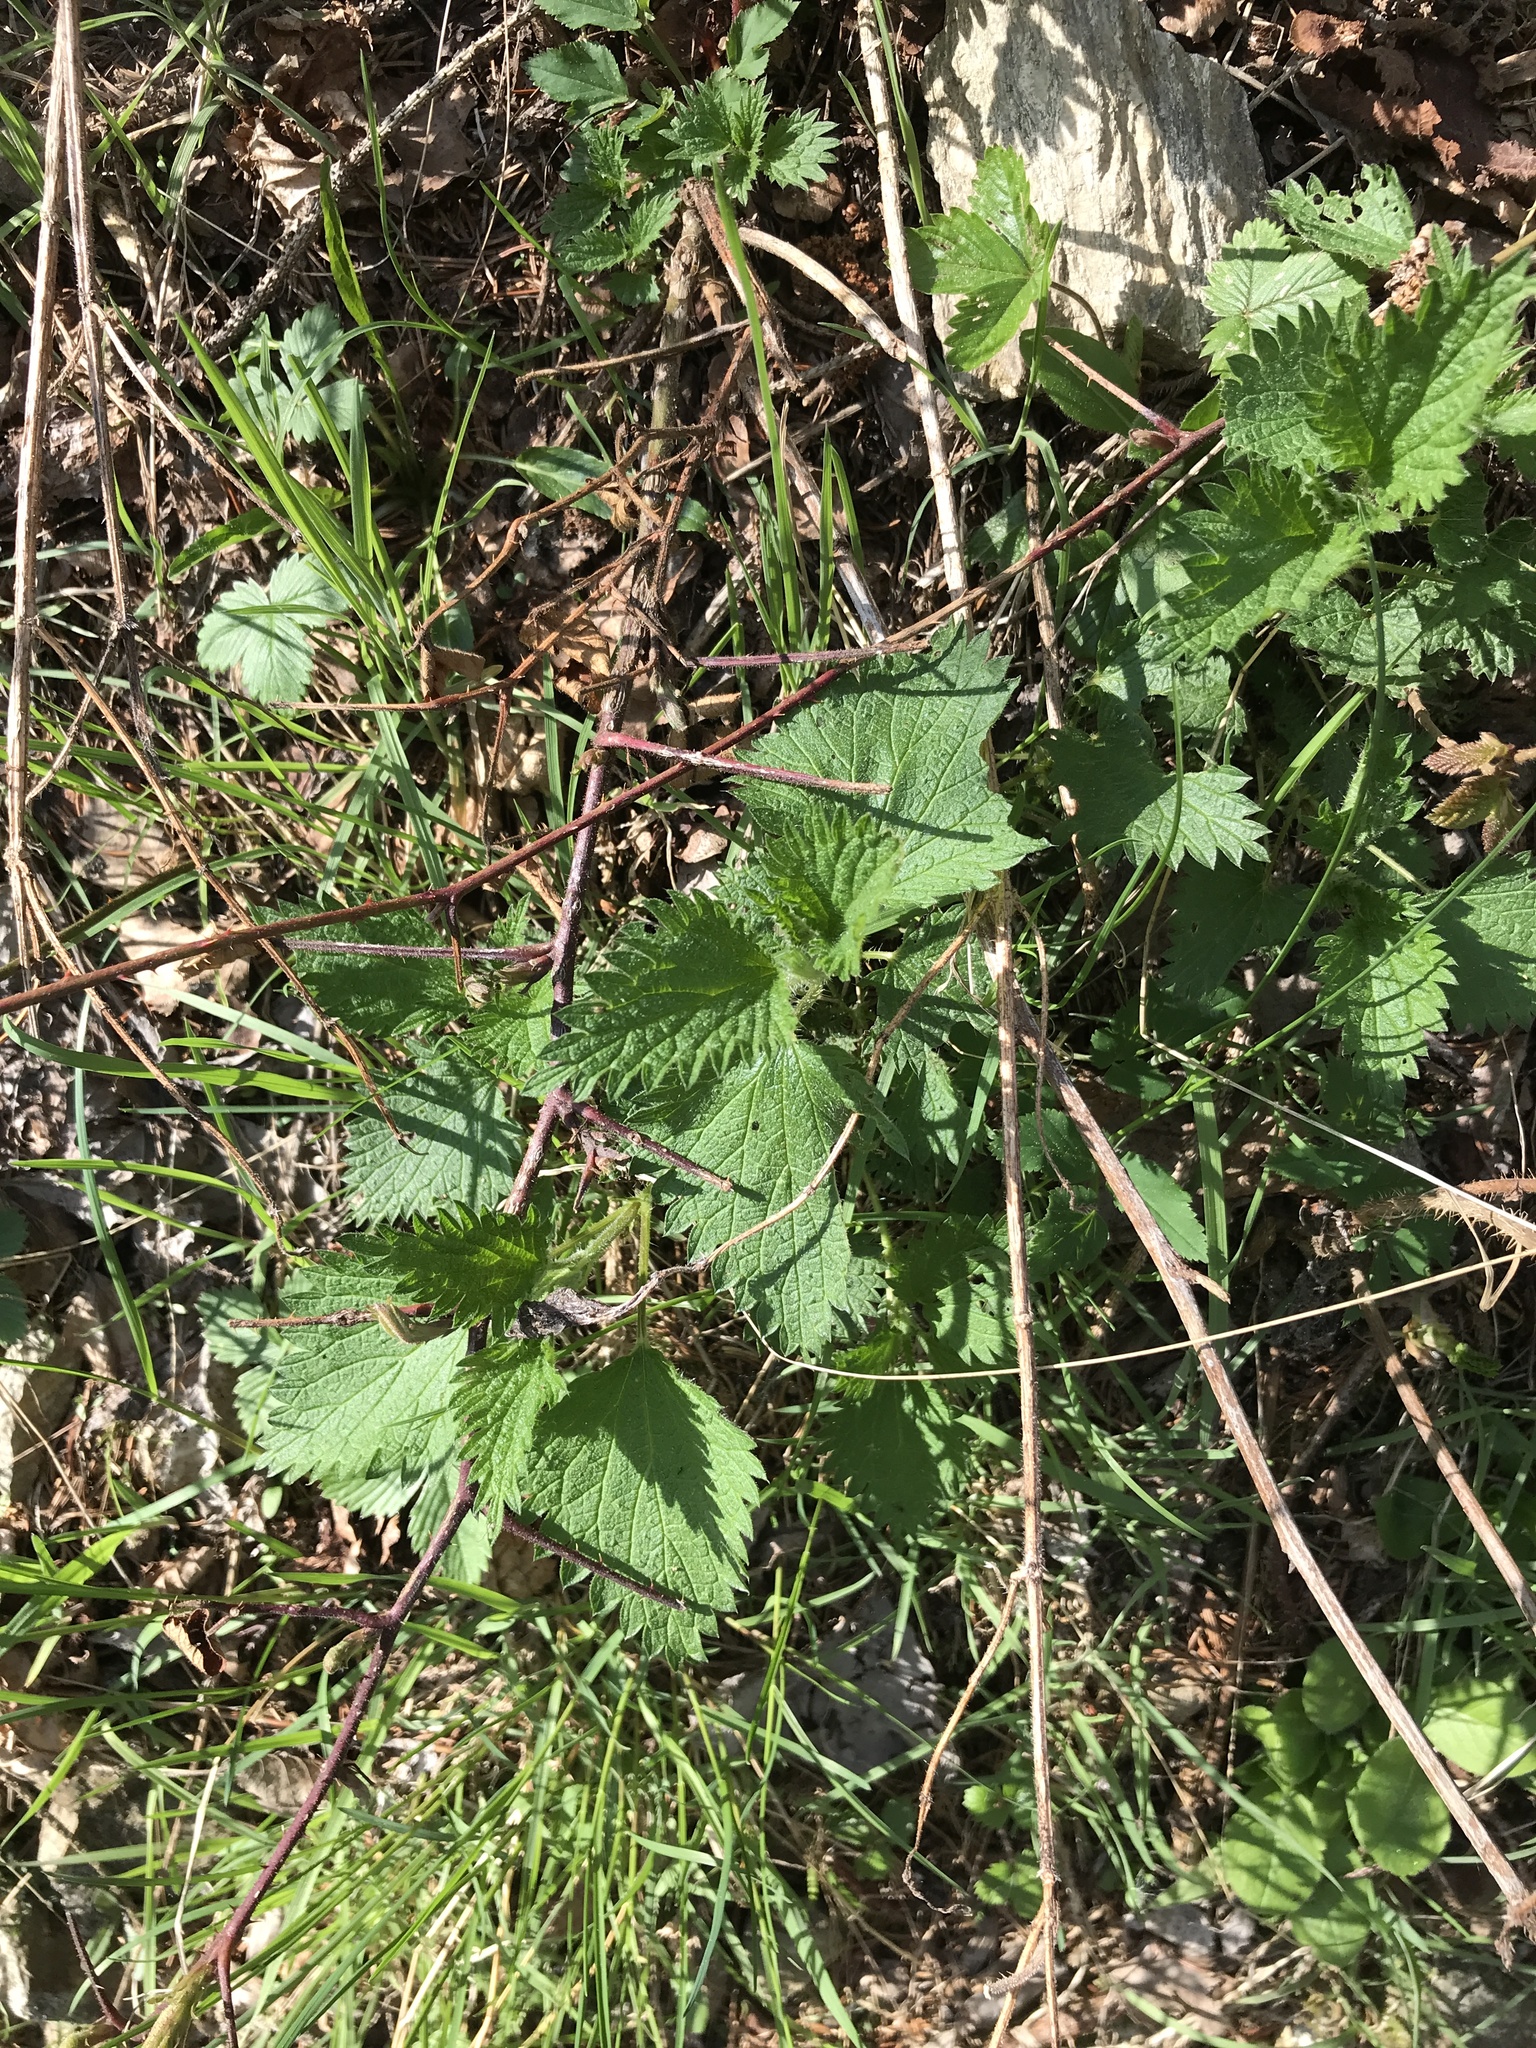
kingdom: Plantae
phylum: Tracheophyta
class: Magnoliopsida
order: Rosales
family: Urticaceae
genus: Urtica
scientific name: Urtica dioica
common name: Common nettle
